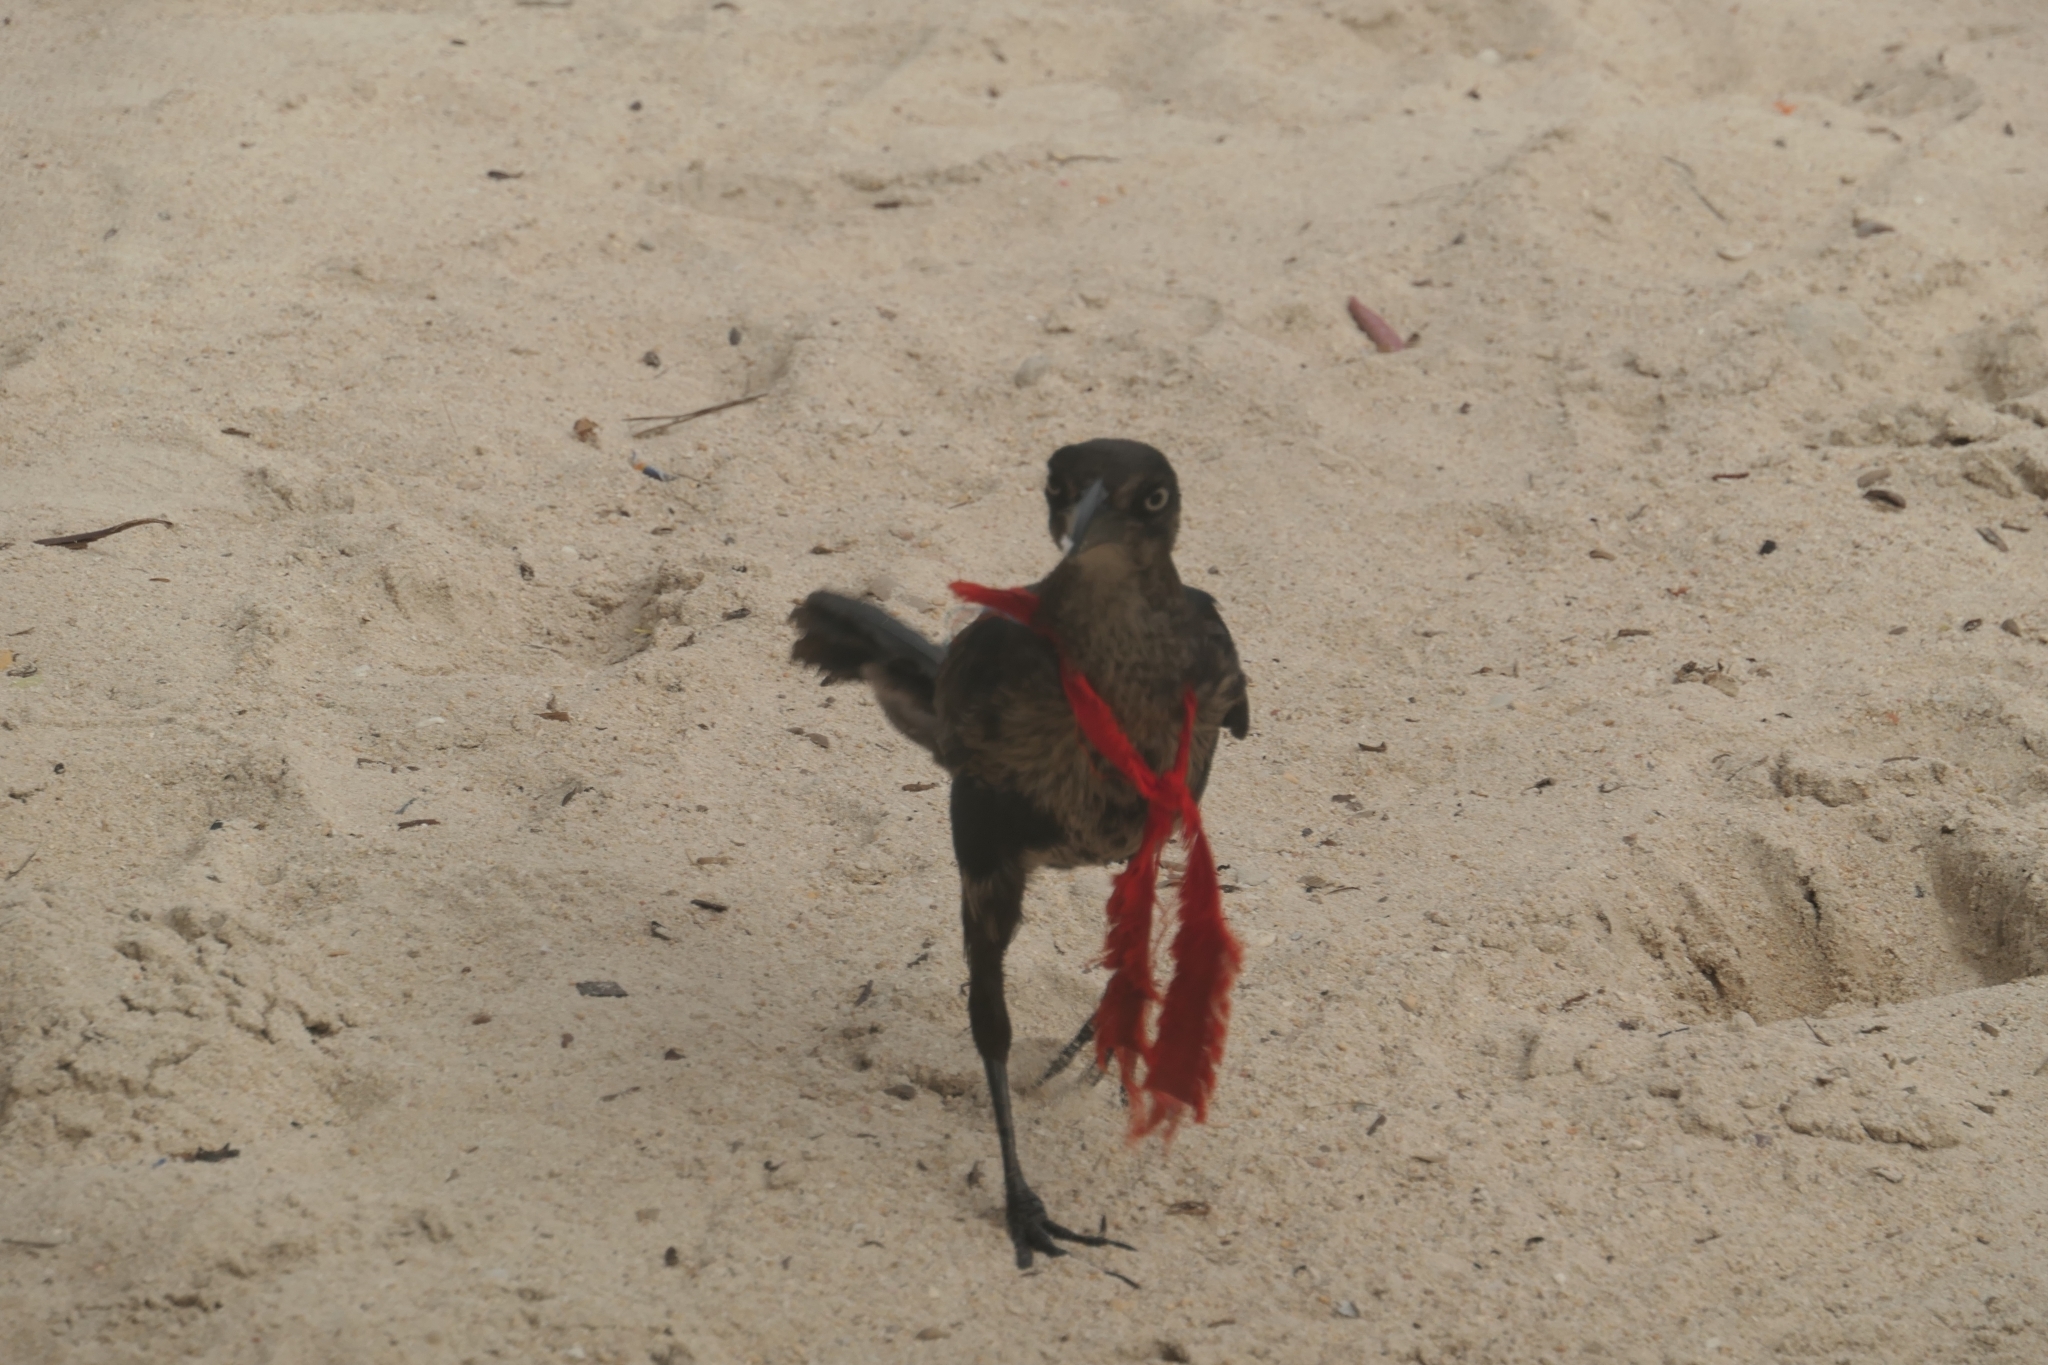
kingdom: Animalia
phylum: Chordata
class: Aves
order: Passeriformes
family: Icteridae
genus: Quiscalus
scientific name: Quiscalus mexicanus
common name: Great-tailed grackle
